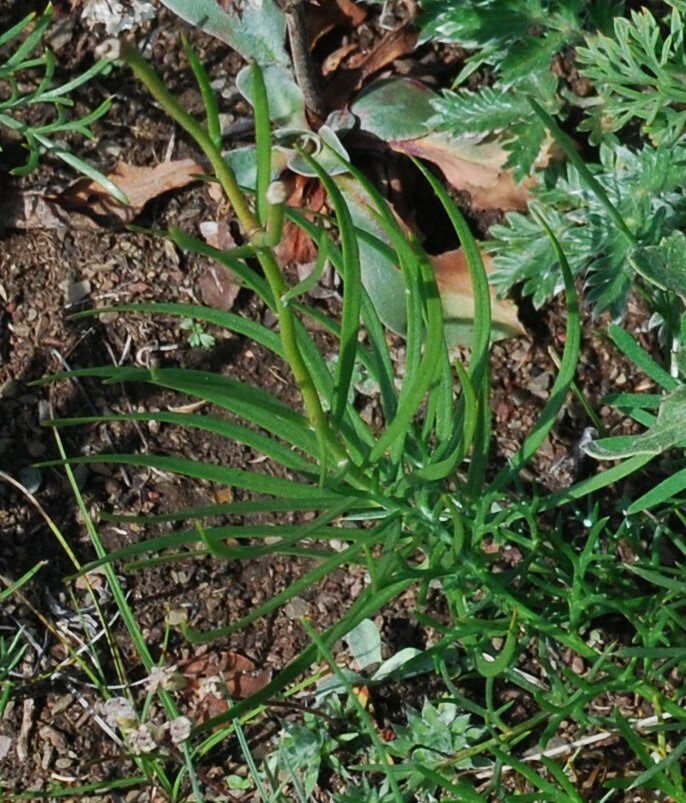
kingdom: Plantae
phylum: Tracheophyta
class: Liliopsida
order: Liliales
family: Liliaceae
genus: Lilium
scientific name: Lilium pumilum
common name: Coral lily
